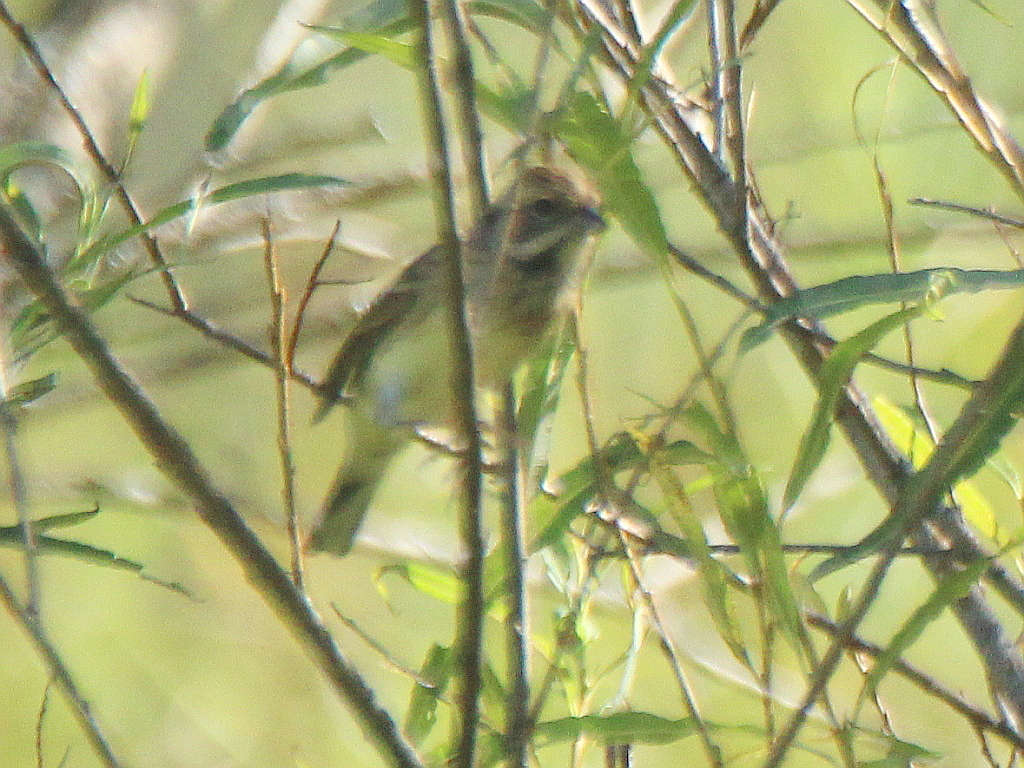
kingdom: Animalia
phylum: Chordata
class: Aves
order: Passeriformes
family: Emberizidae
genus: Emberiza
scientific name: Emberiza spodocephala
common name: Black-faced bunting
